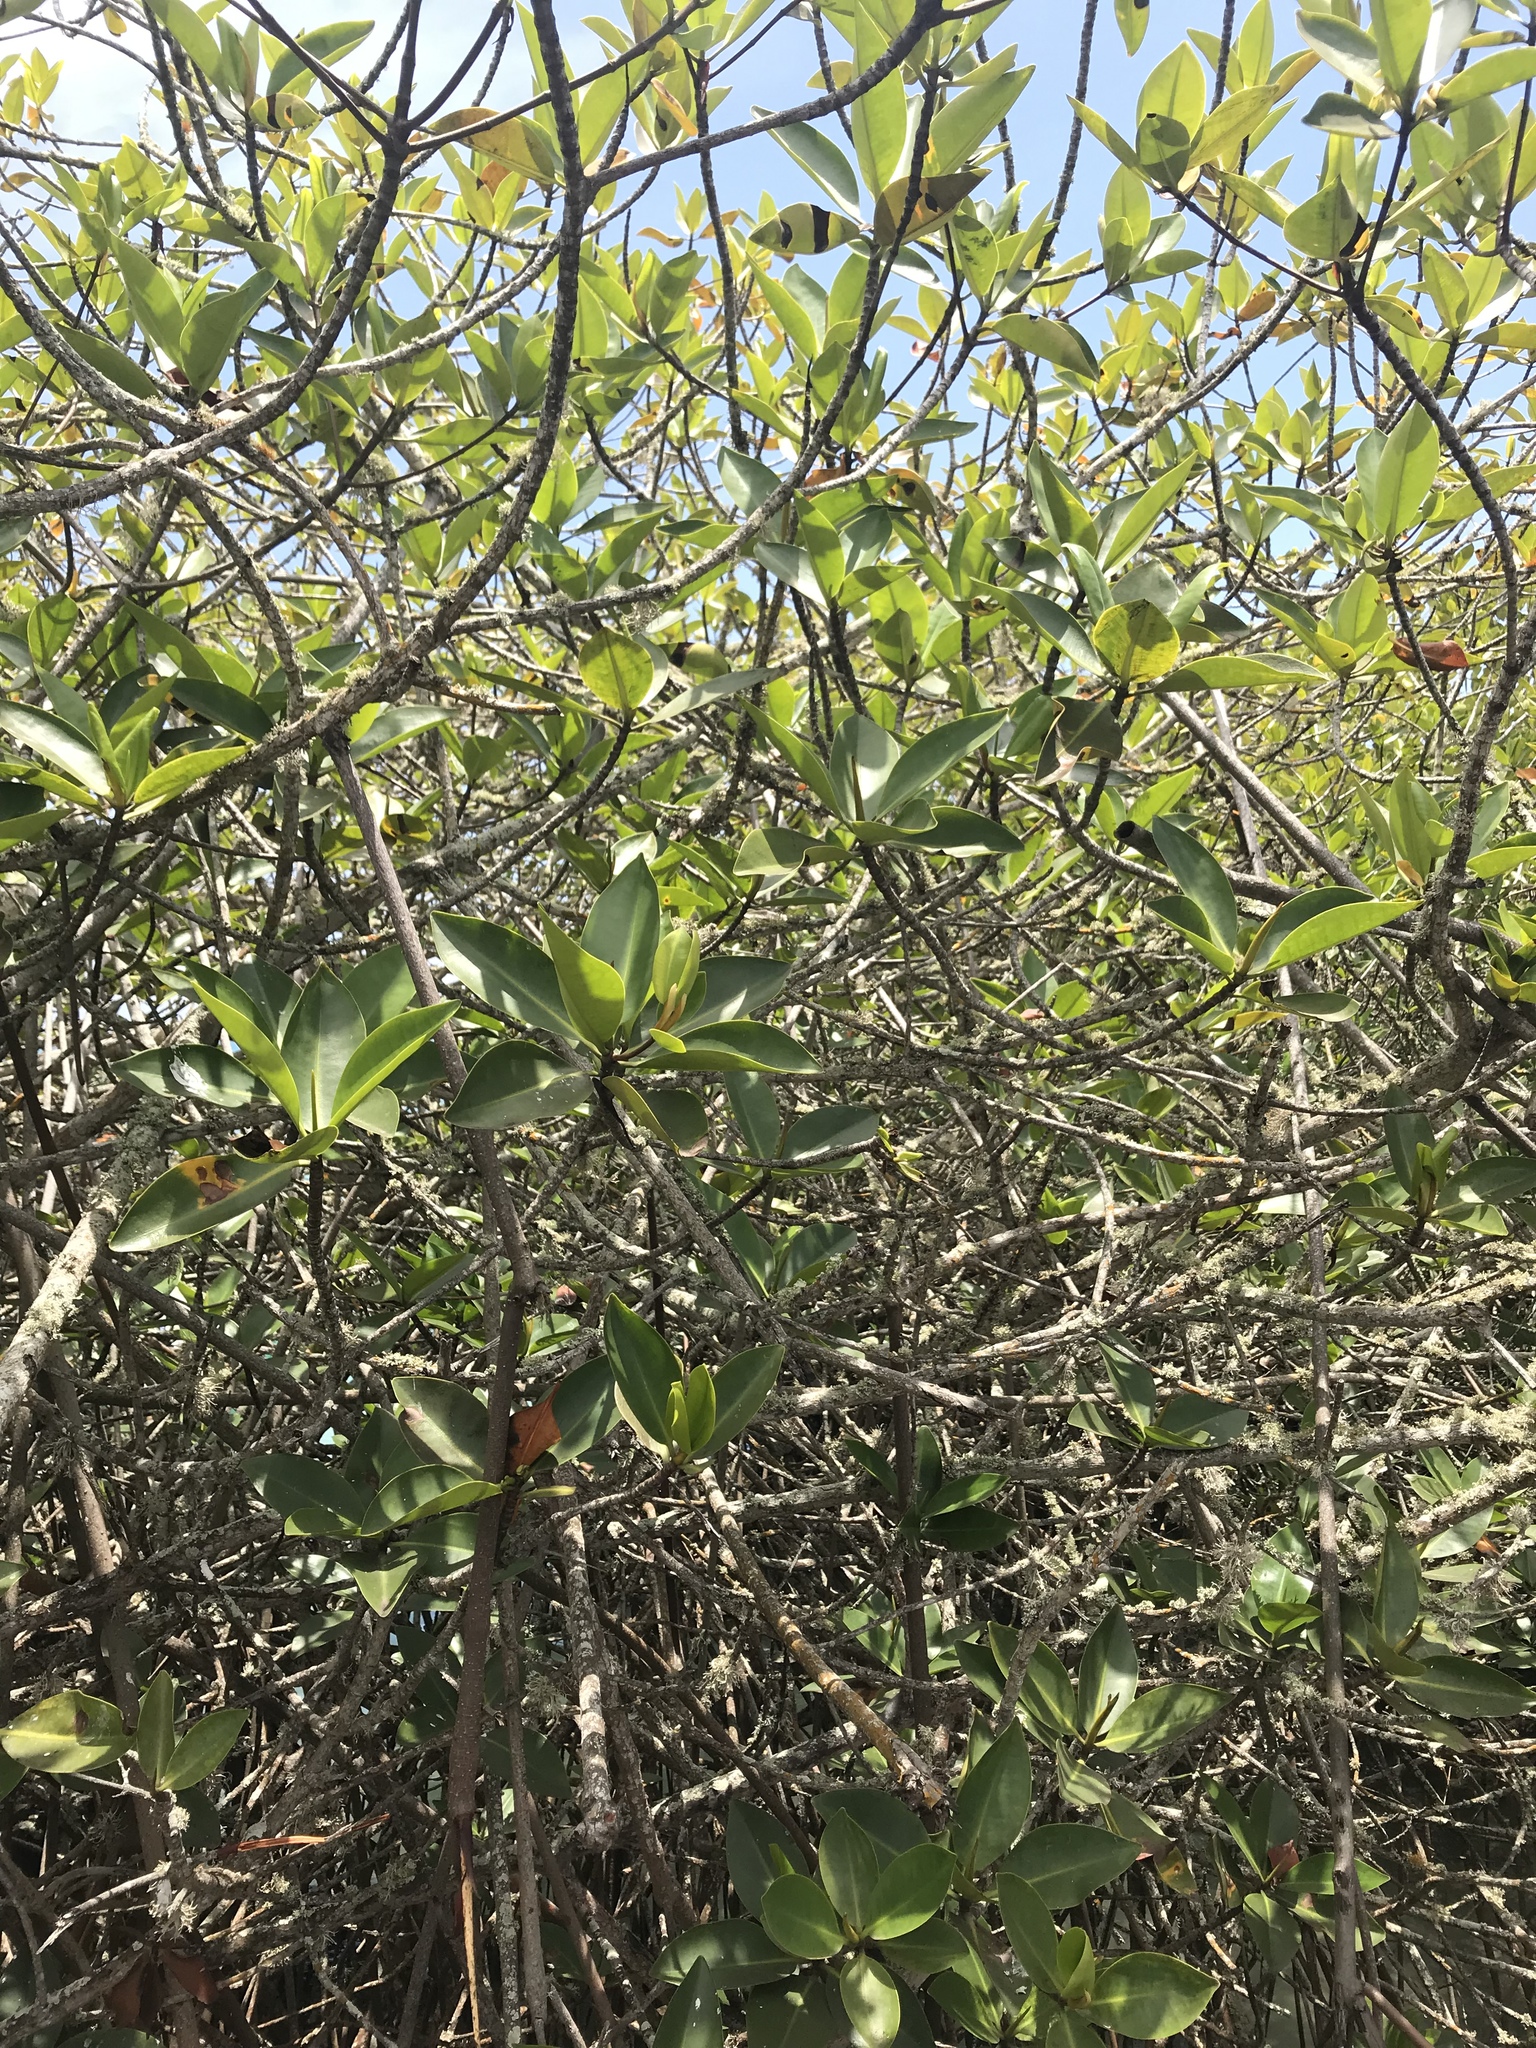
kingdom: Plantae
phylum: Tracheophyta
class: Magnoliopsida
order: Malpighiales
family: Rhizophoraceae
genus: Rhizophora
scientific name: Rhizophora mangle
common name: Red mangrove
